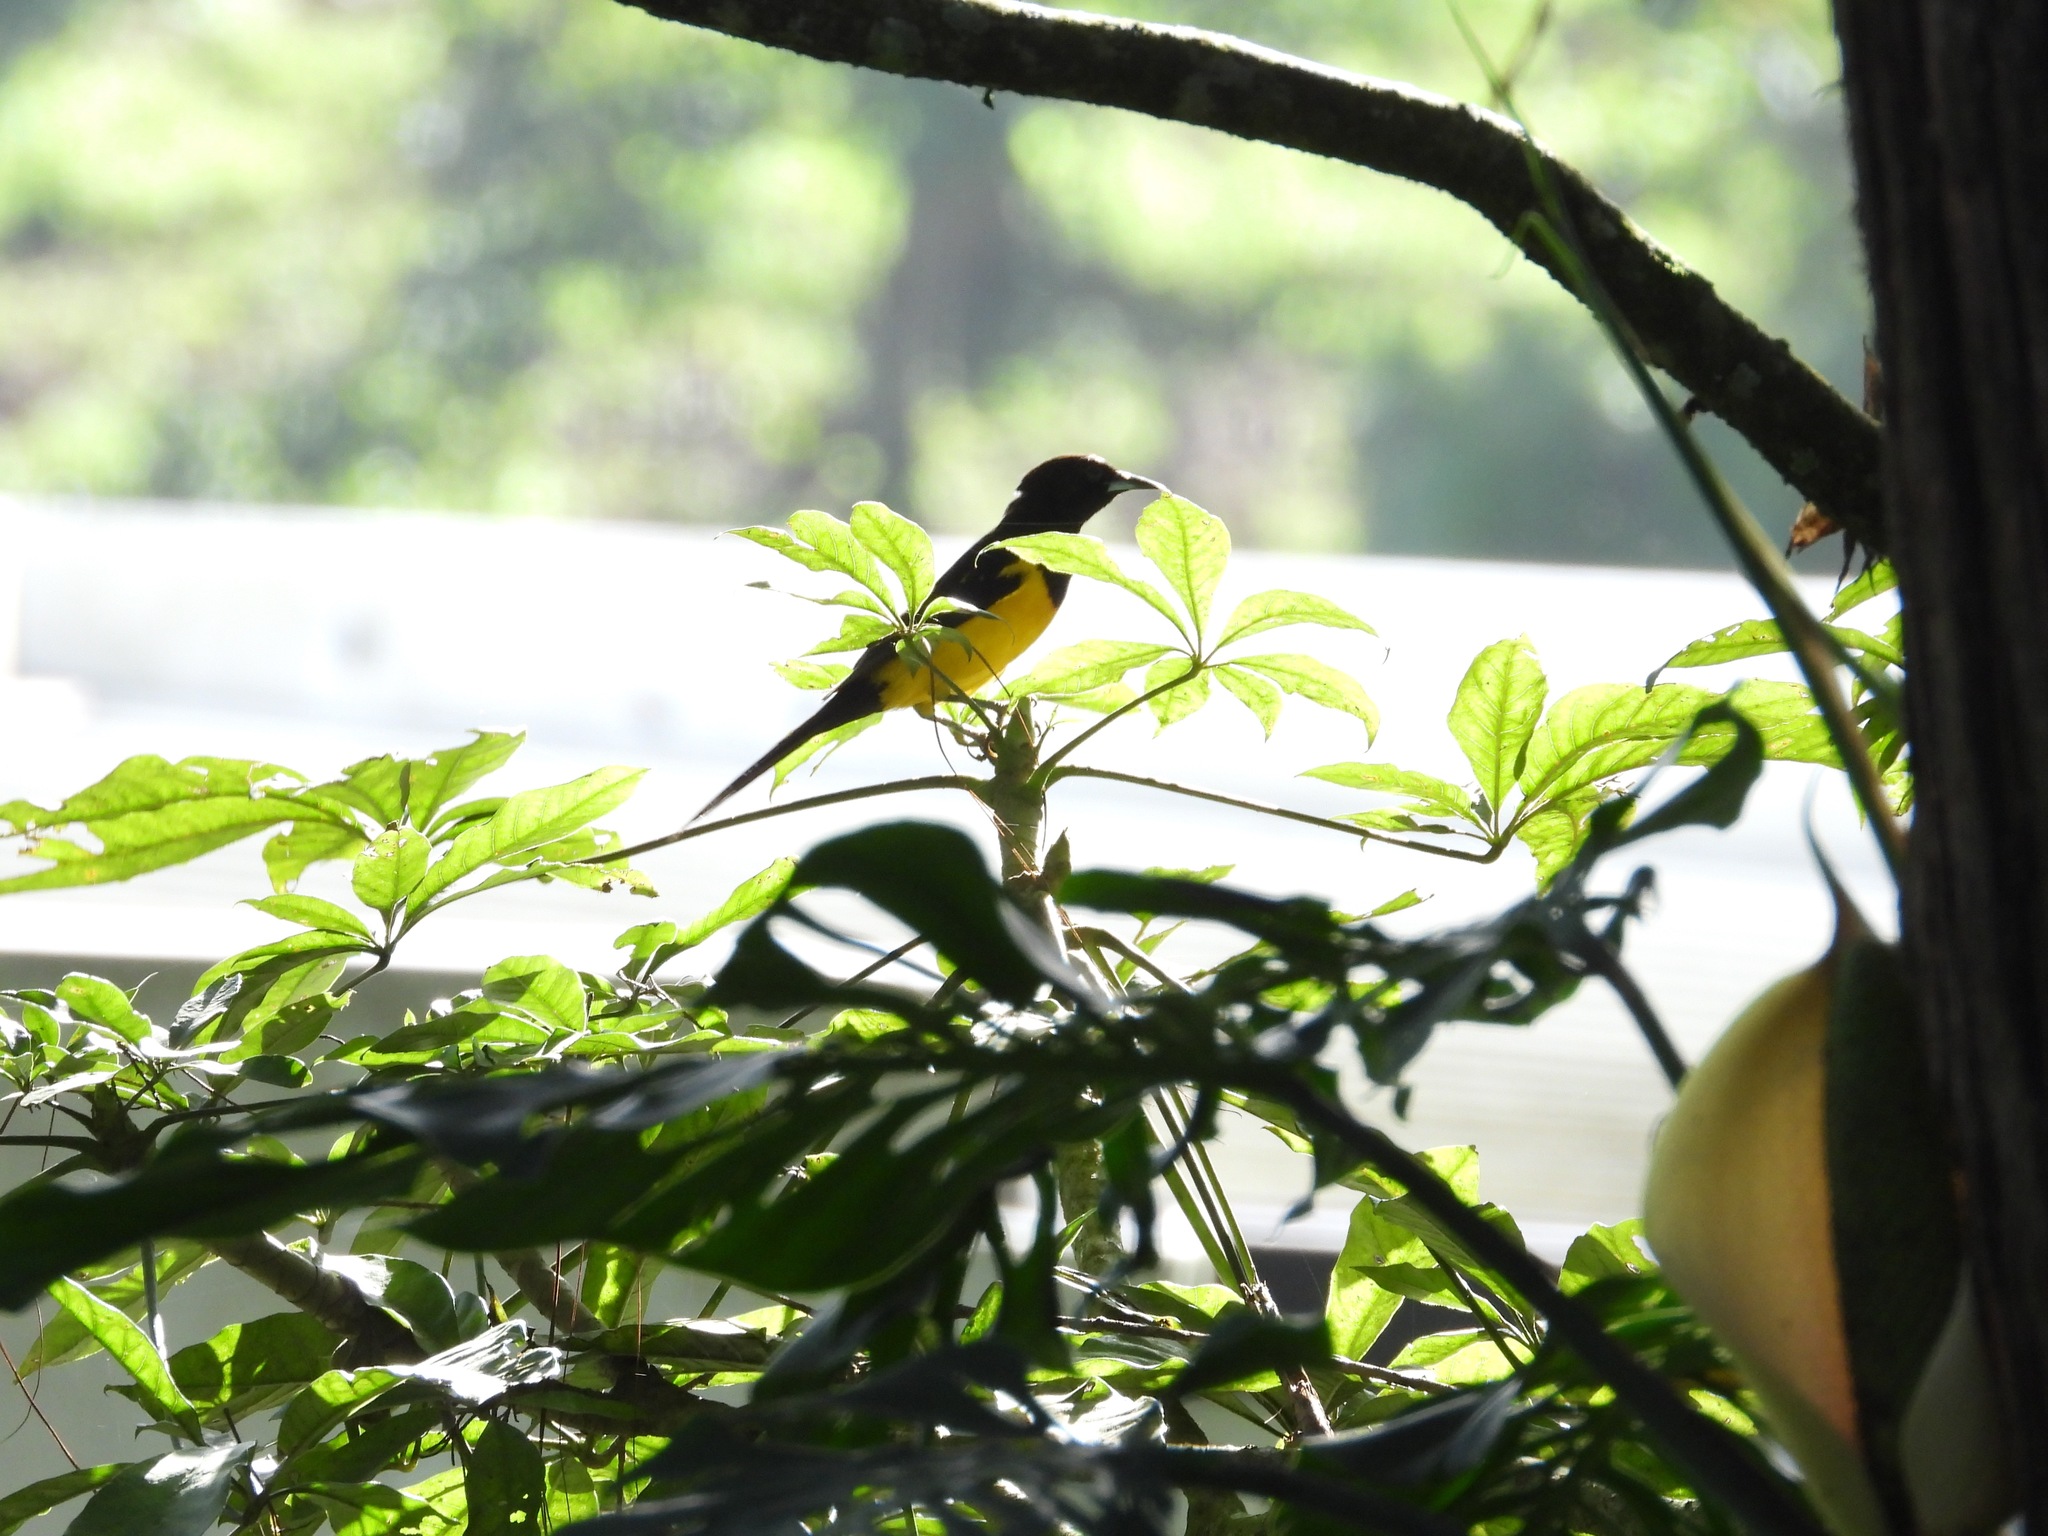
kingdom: Animalia
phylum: Chordata
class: Aves
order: Passeriformes
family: Icteridae
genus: Icterus
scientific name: Icterus wagleri
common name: Black-vented oriole
